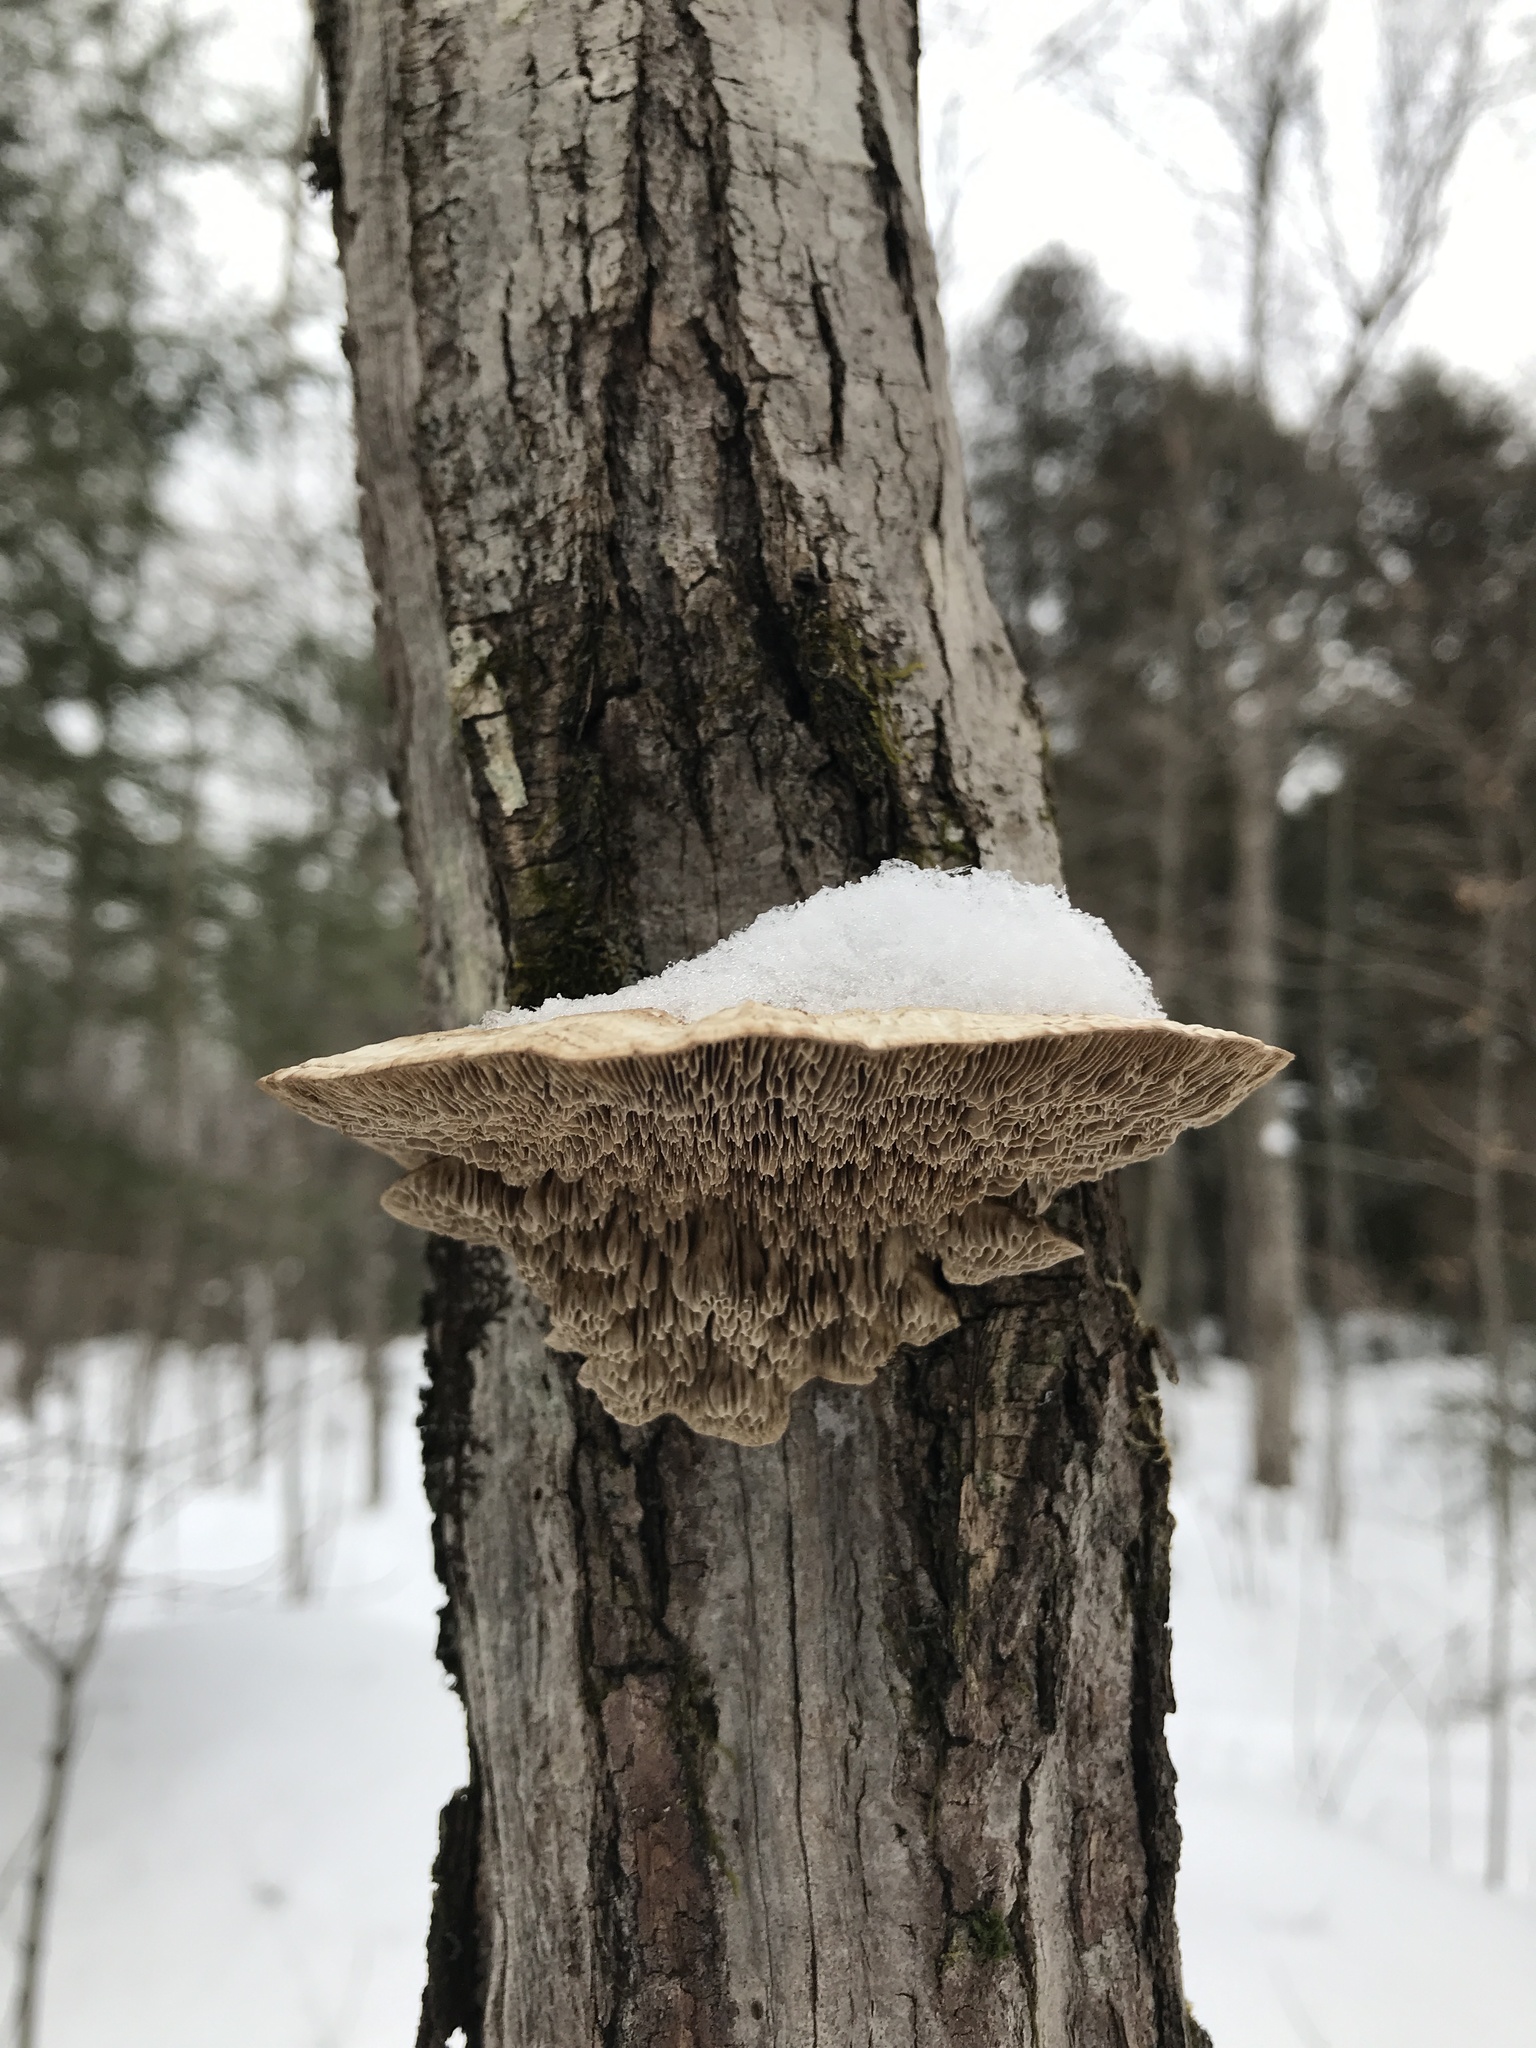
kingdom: Fungi
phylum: Basidiomycota
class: Agaricomycetes
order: Polyporales
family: Polyporaceae
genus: Daedaleopsis
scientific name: Daedaleopsis confragosa
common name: Blushing bracket
